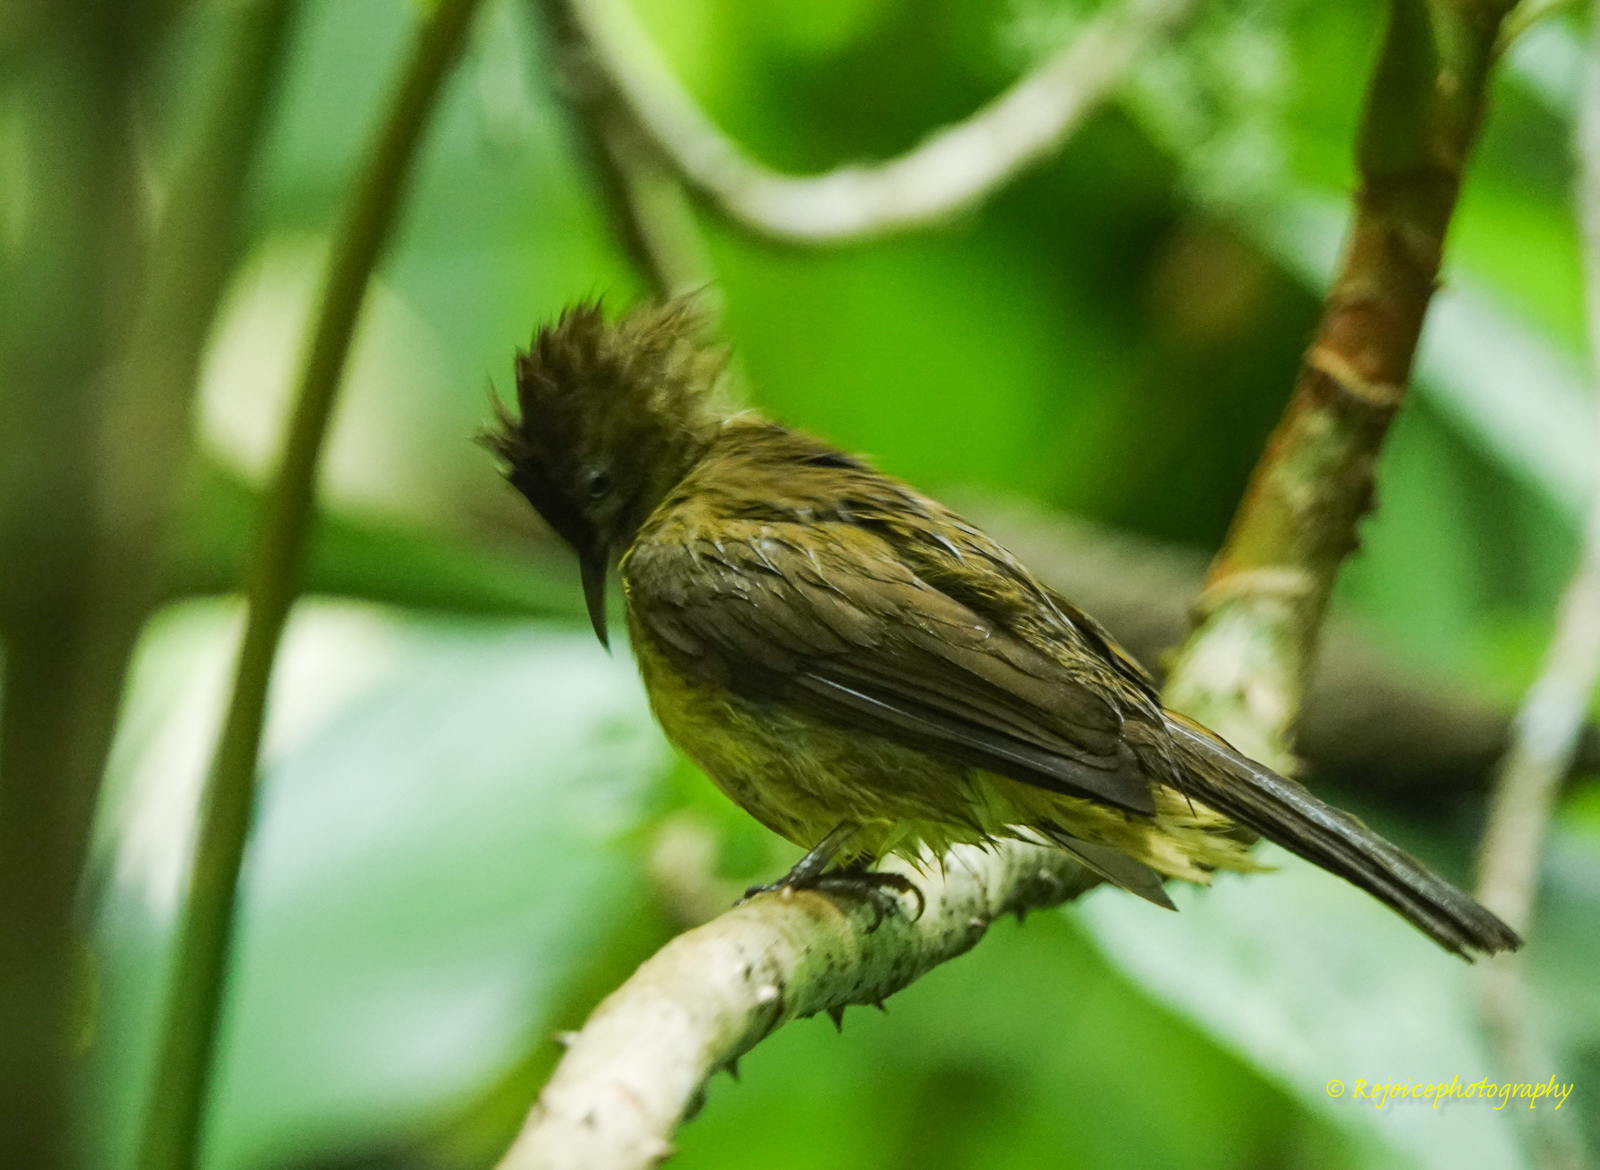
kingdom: Animalia
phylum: Chordata
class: Aves
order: Passeriformes
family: Pycnonotidae
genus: Iole
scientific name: Iole virescens
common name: Olive bulbul
